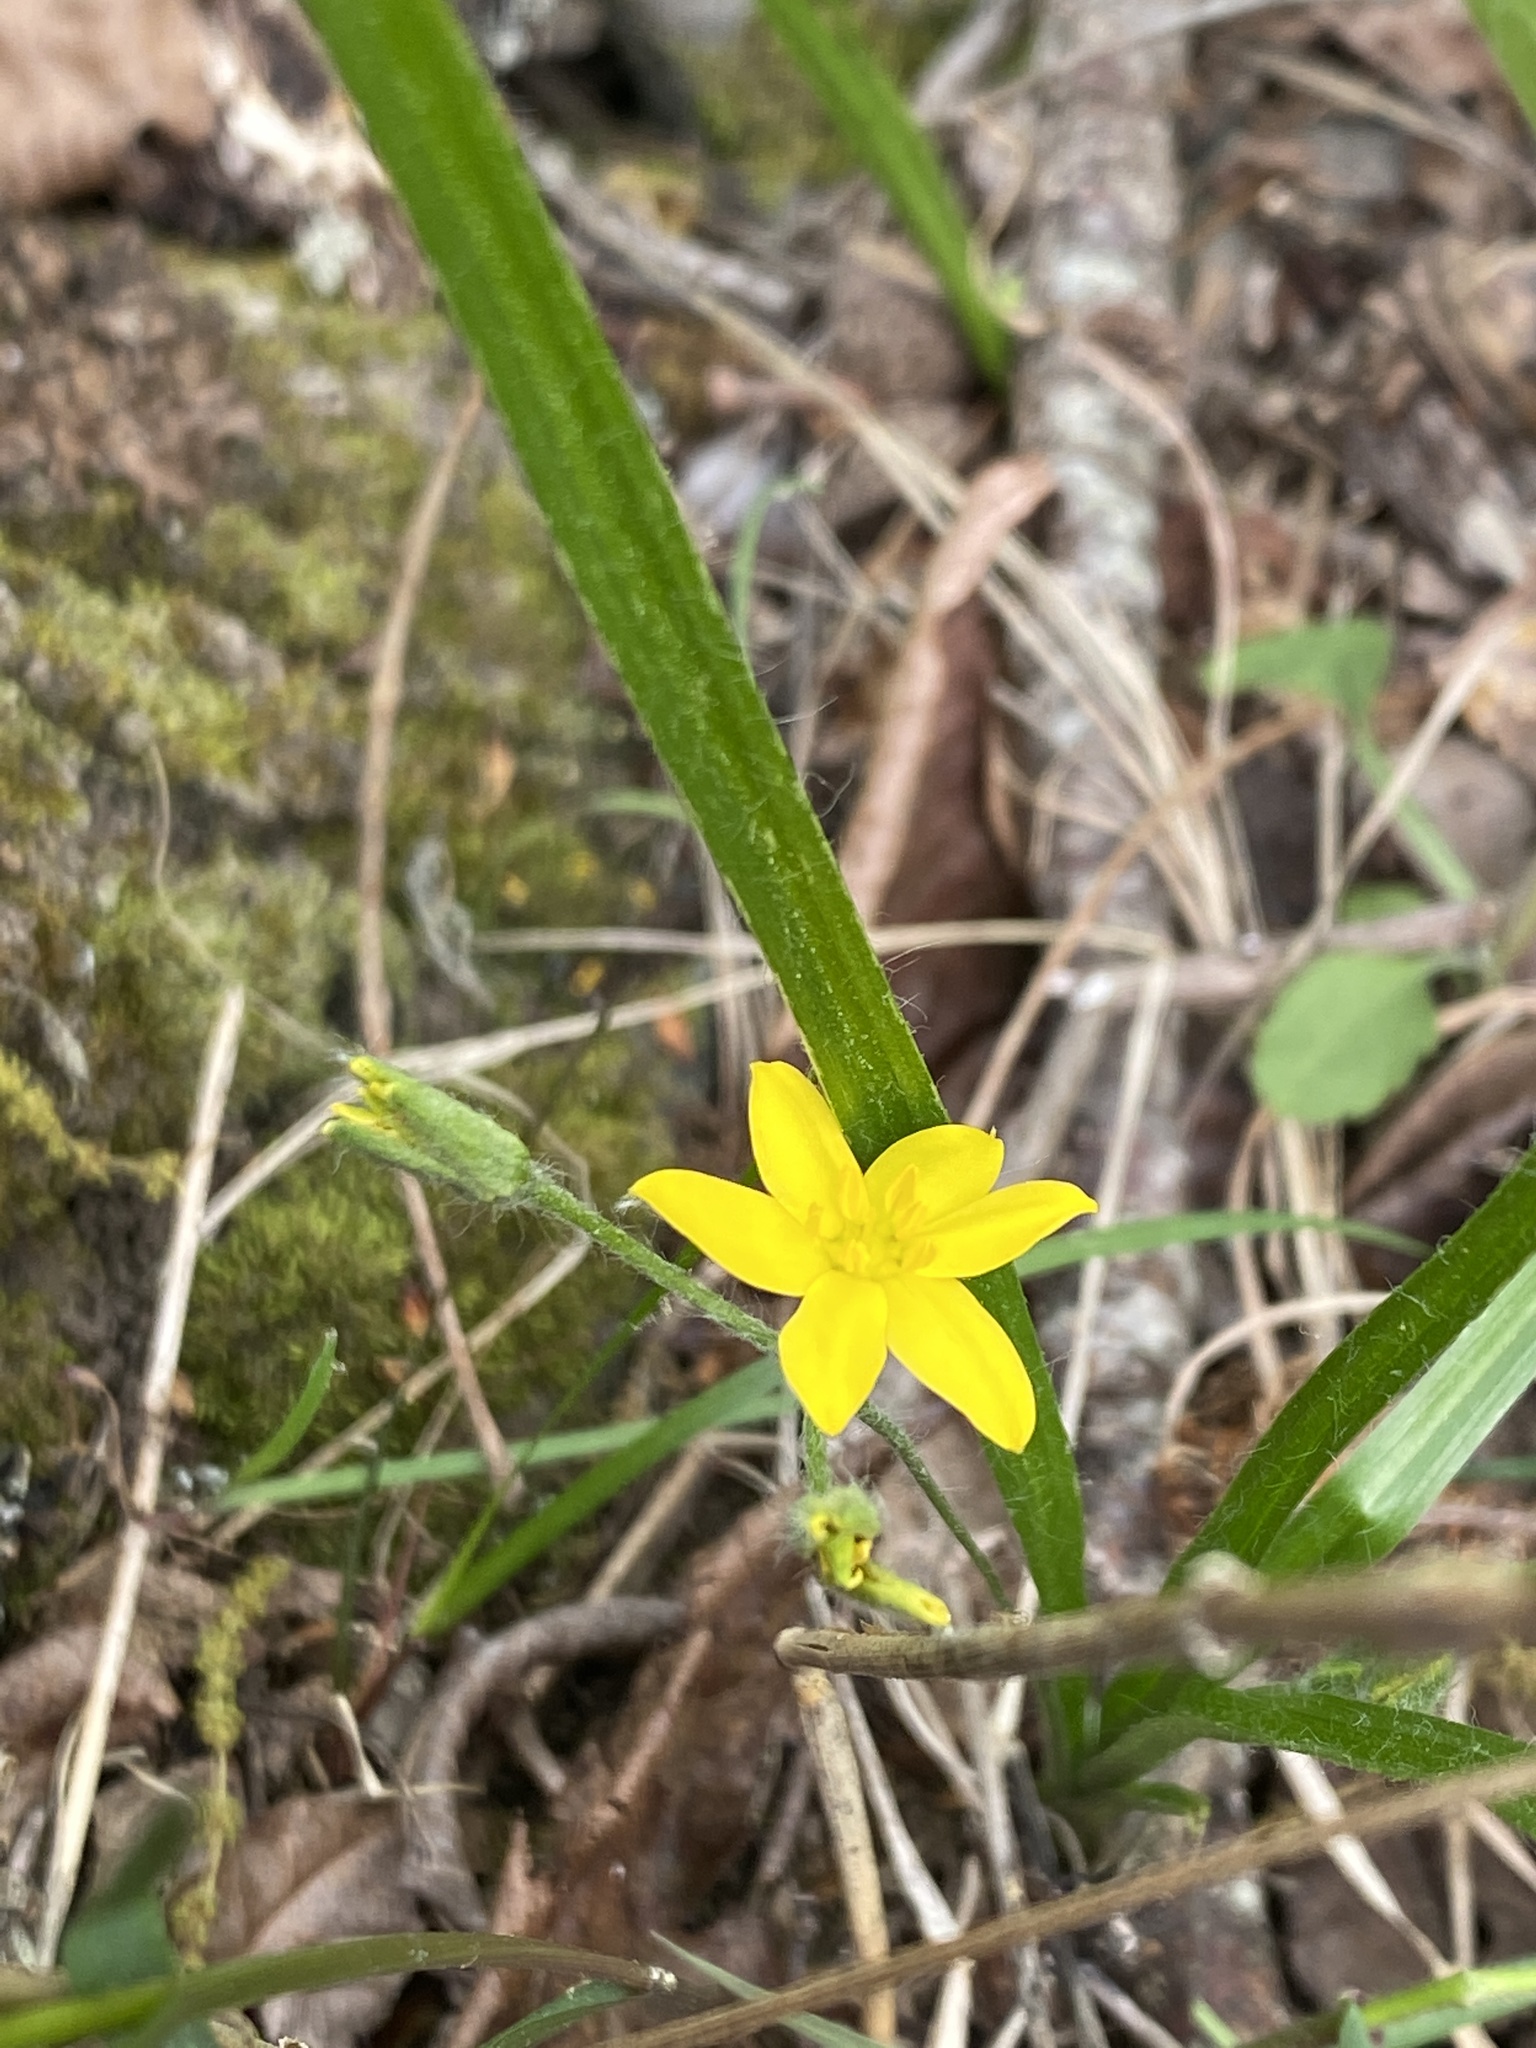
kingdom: Plantae
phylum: Tracheophyta
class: Liliopsida
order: Asparagales
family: Hypoxidaceae
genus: Hypoxis
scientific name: Hypoxis hirsuta
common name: Common goldstar
